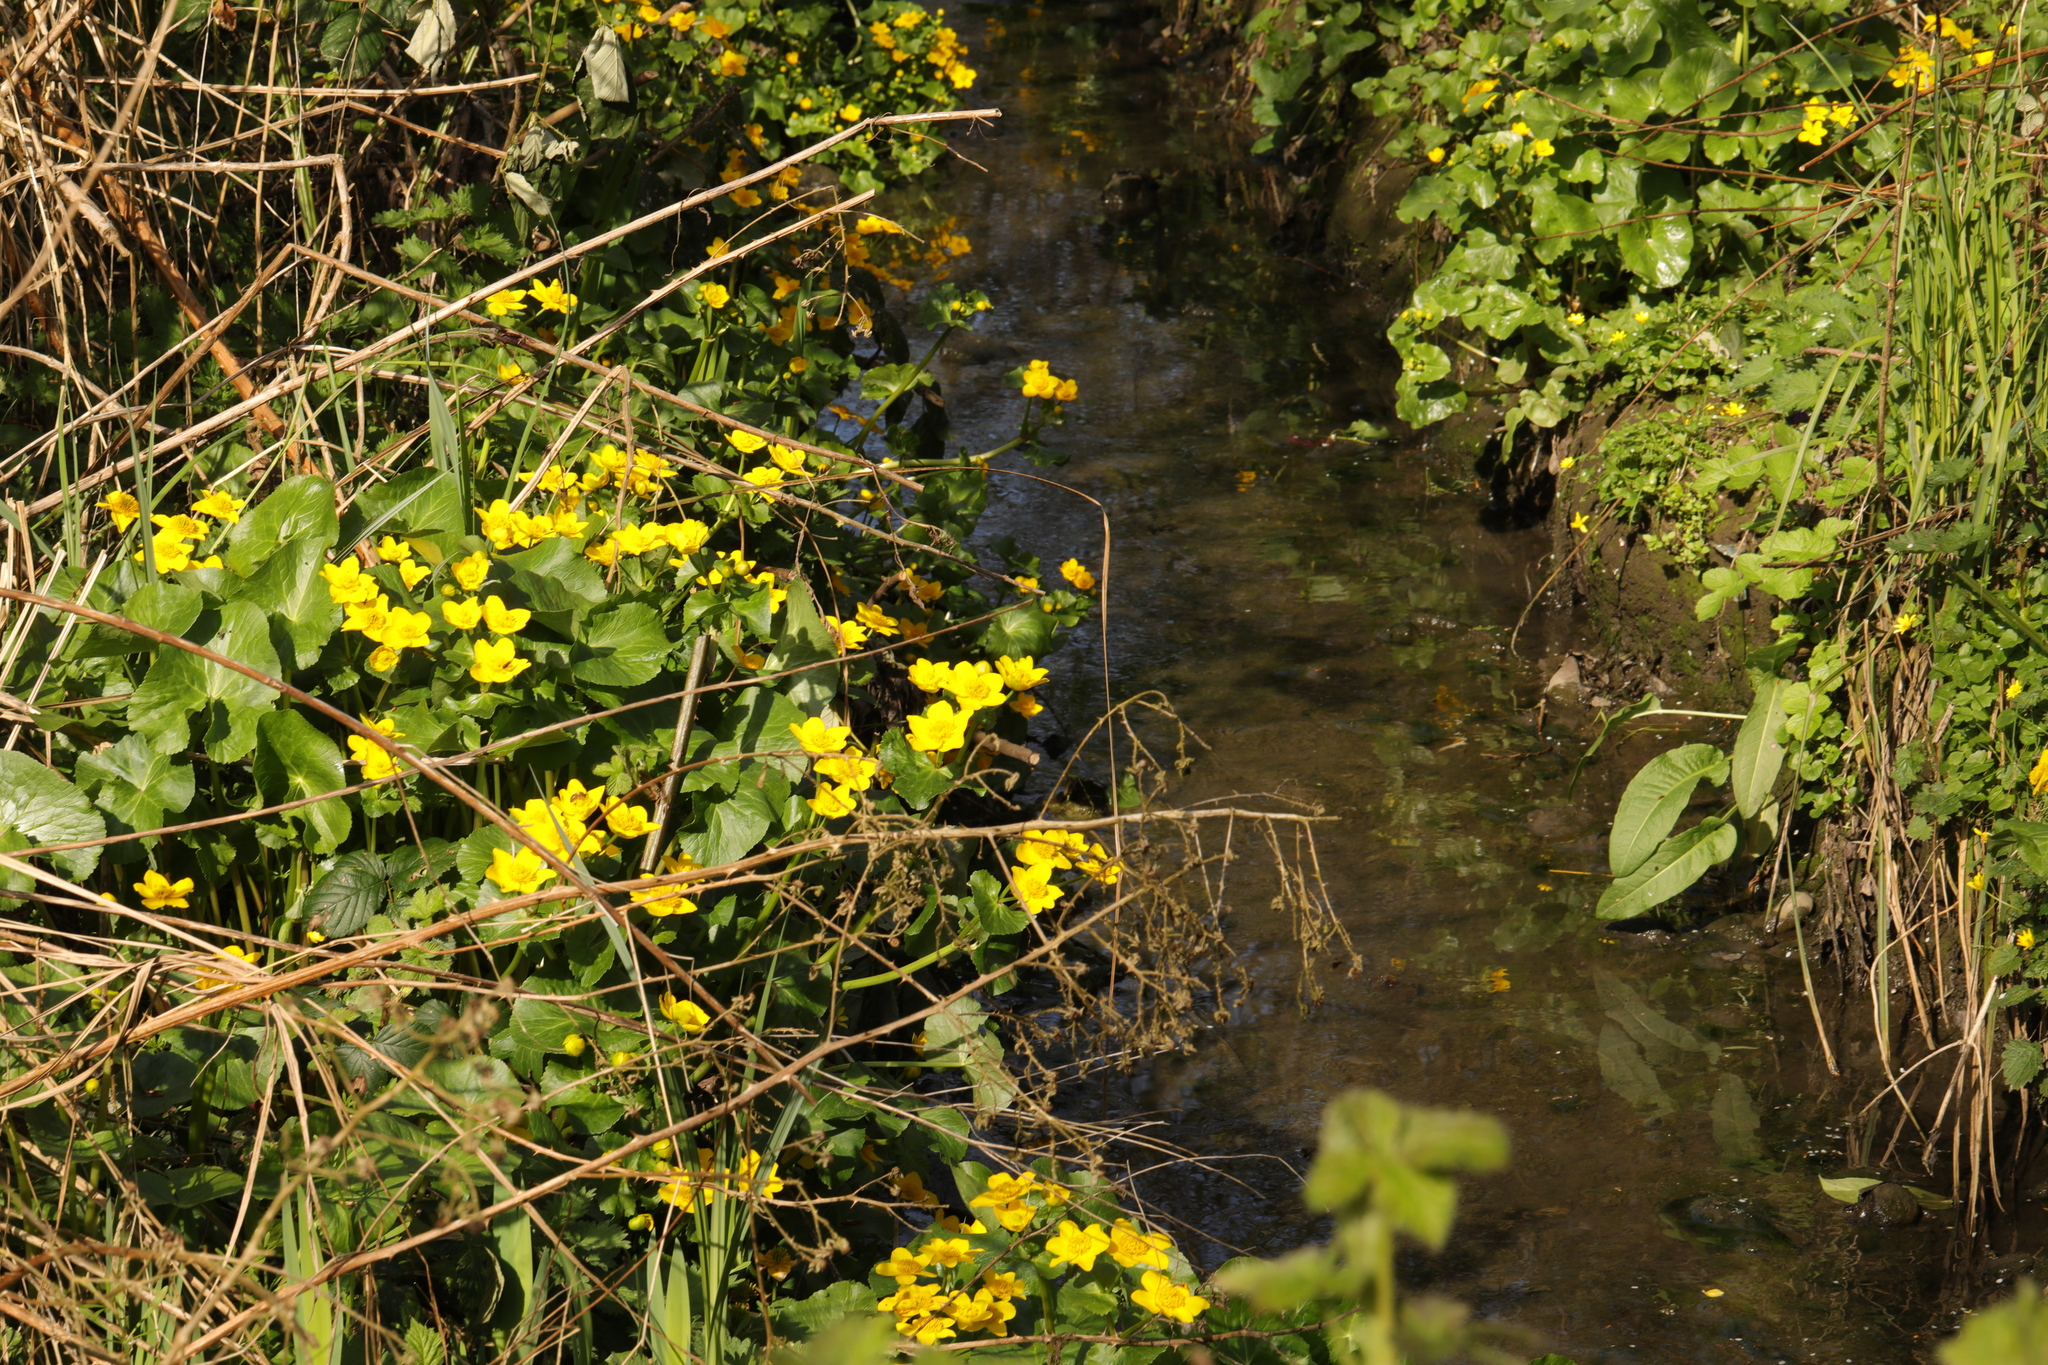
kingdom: Plantae
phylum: Tracheophyta
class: Magnoliopsida
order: Ranunculales
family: Ranunculaceae
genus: Caltha
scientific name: Caltha palustris
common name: Marsh marigold
